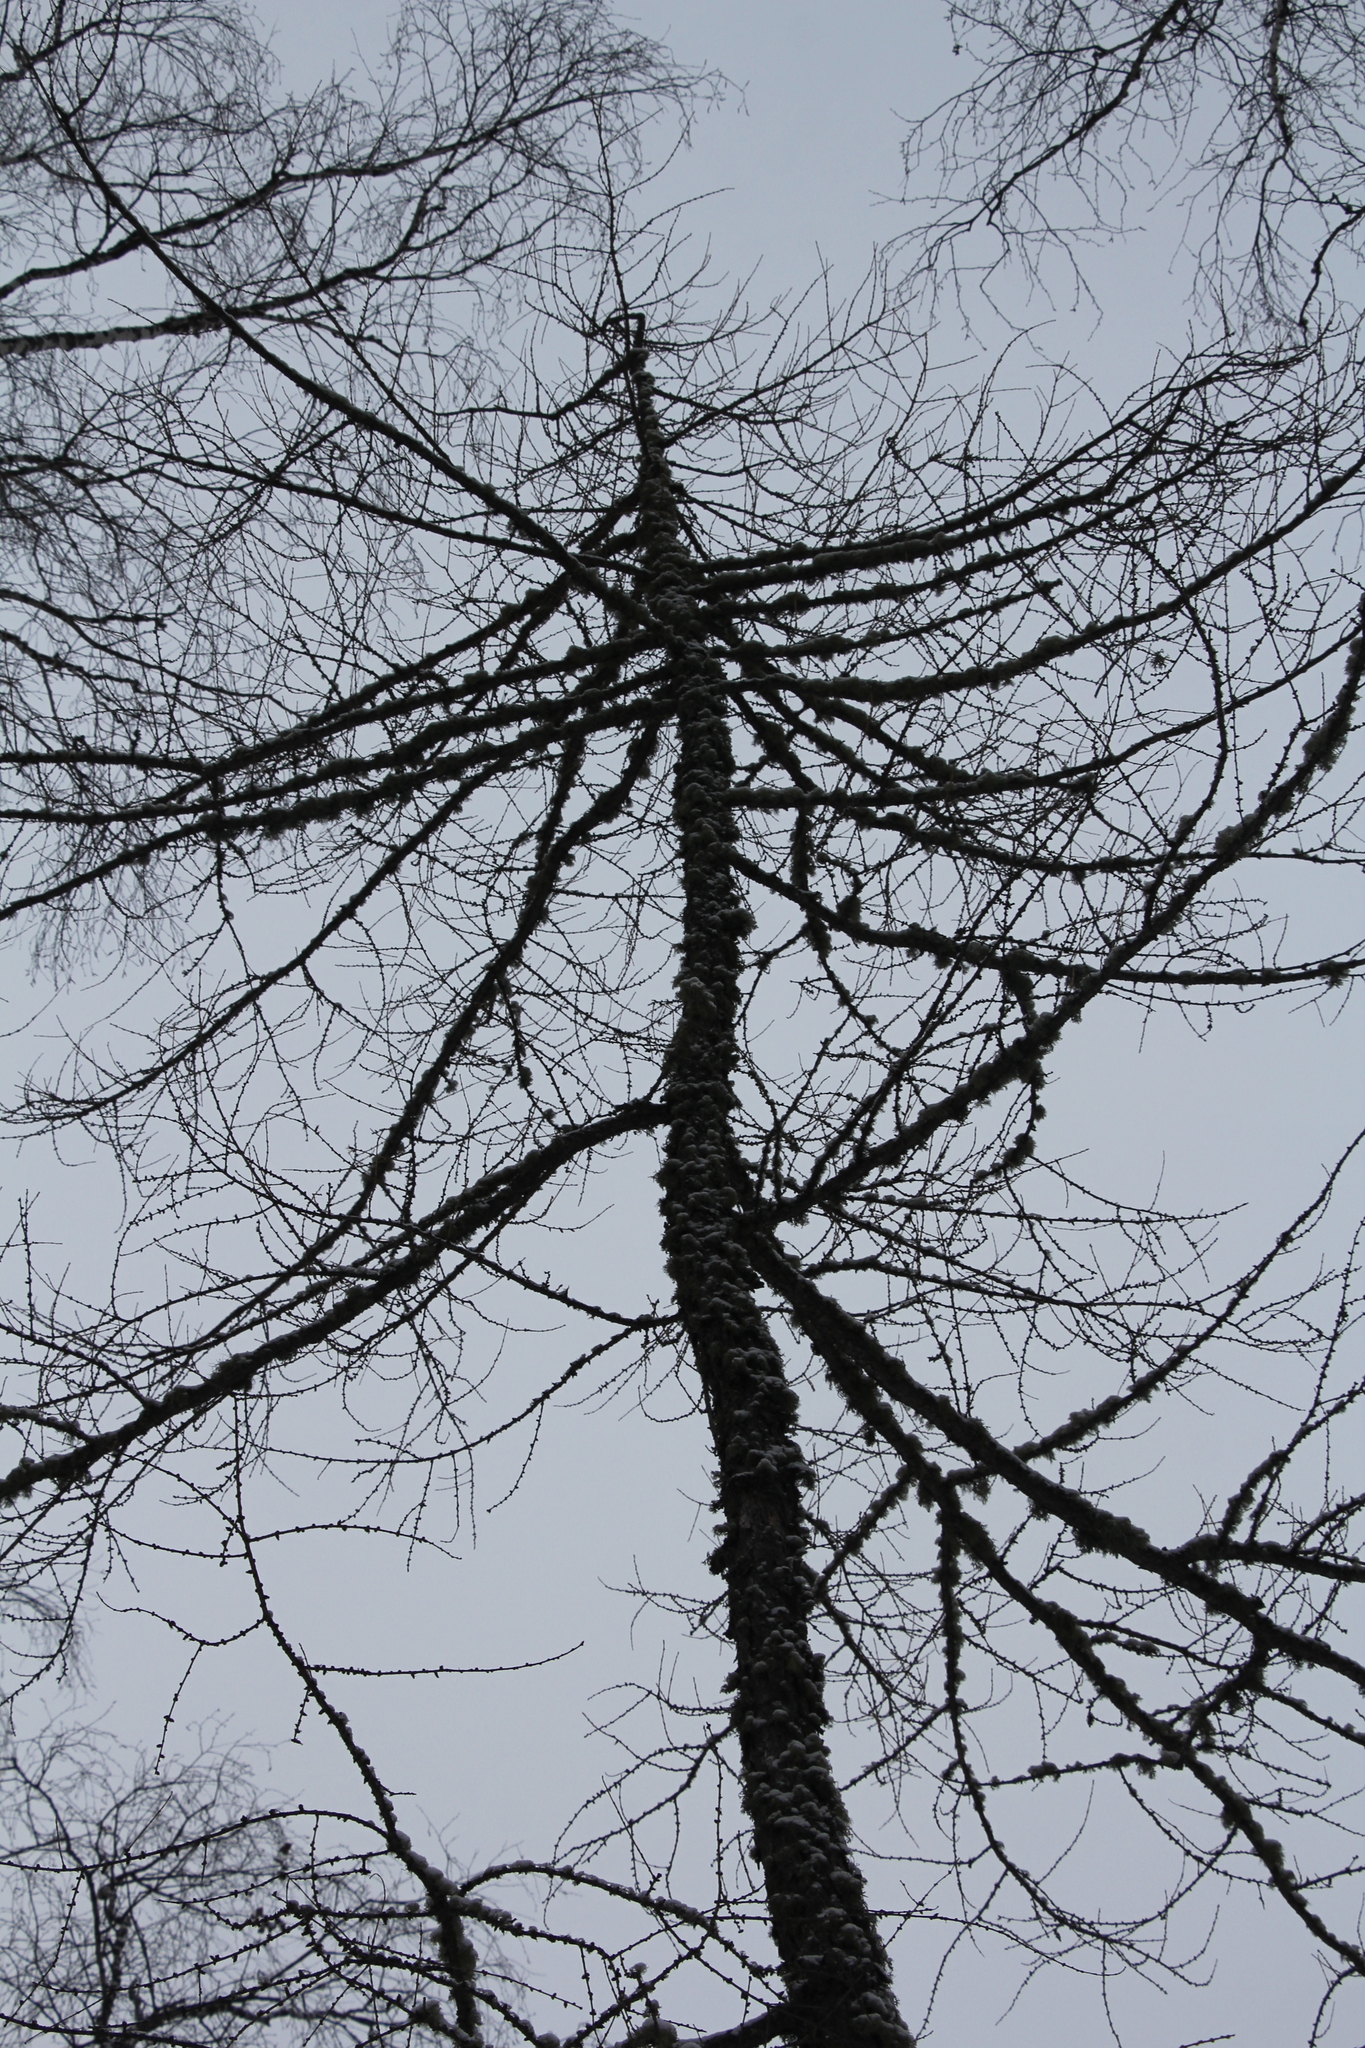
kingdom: Plantae
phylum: Tracheophyta
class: Pinopsida
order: Pinales
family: Pinaceae
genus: Larix
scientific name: Larix sibirica
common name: Siberian larch
